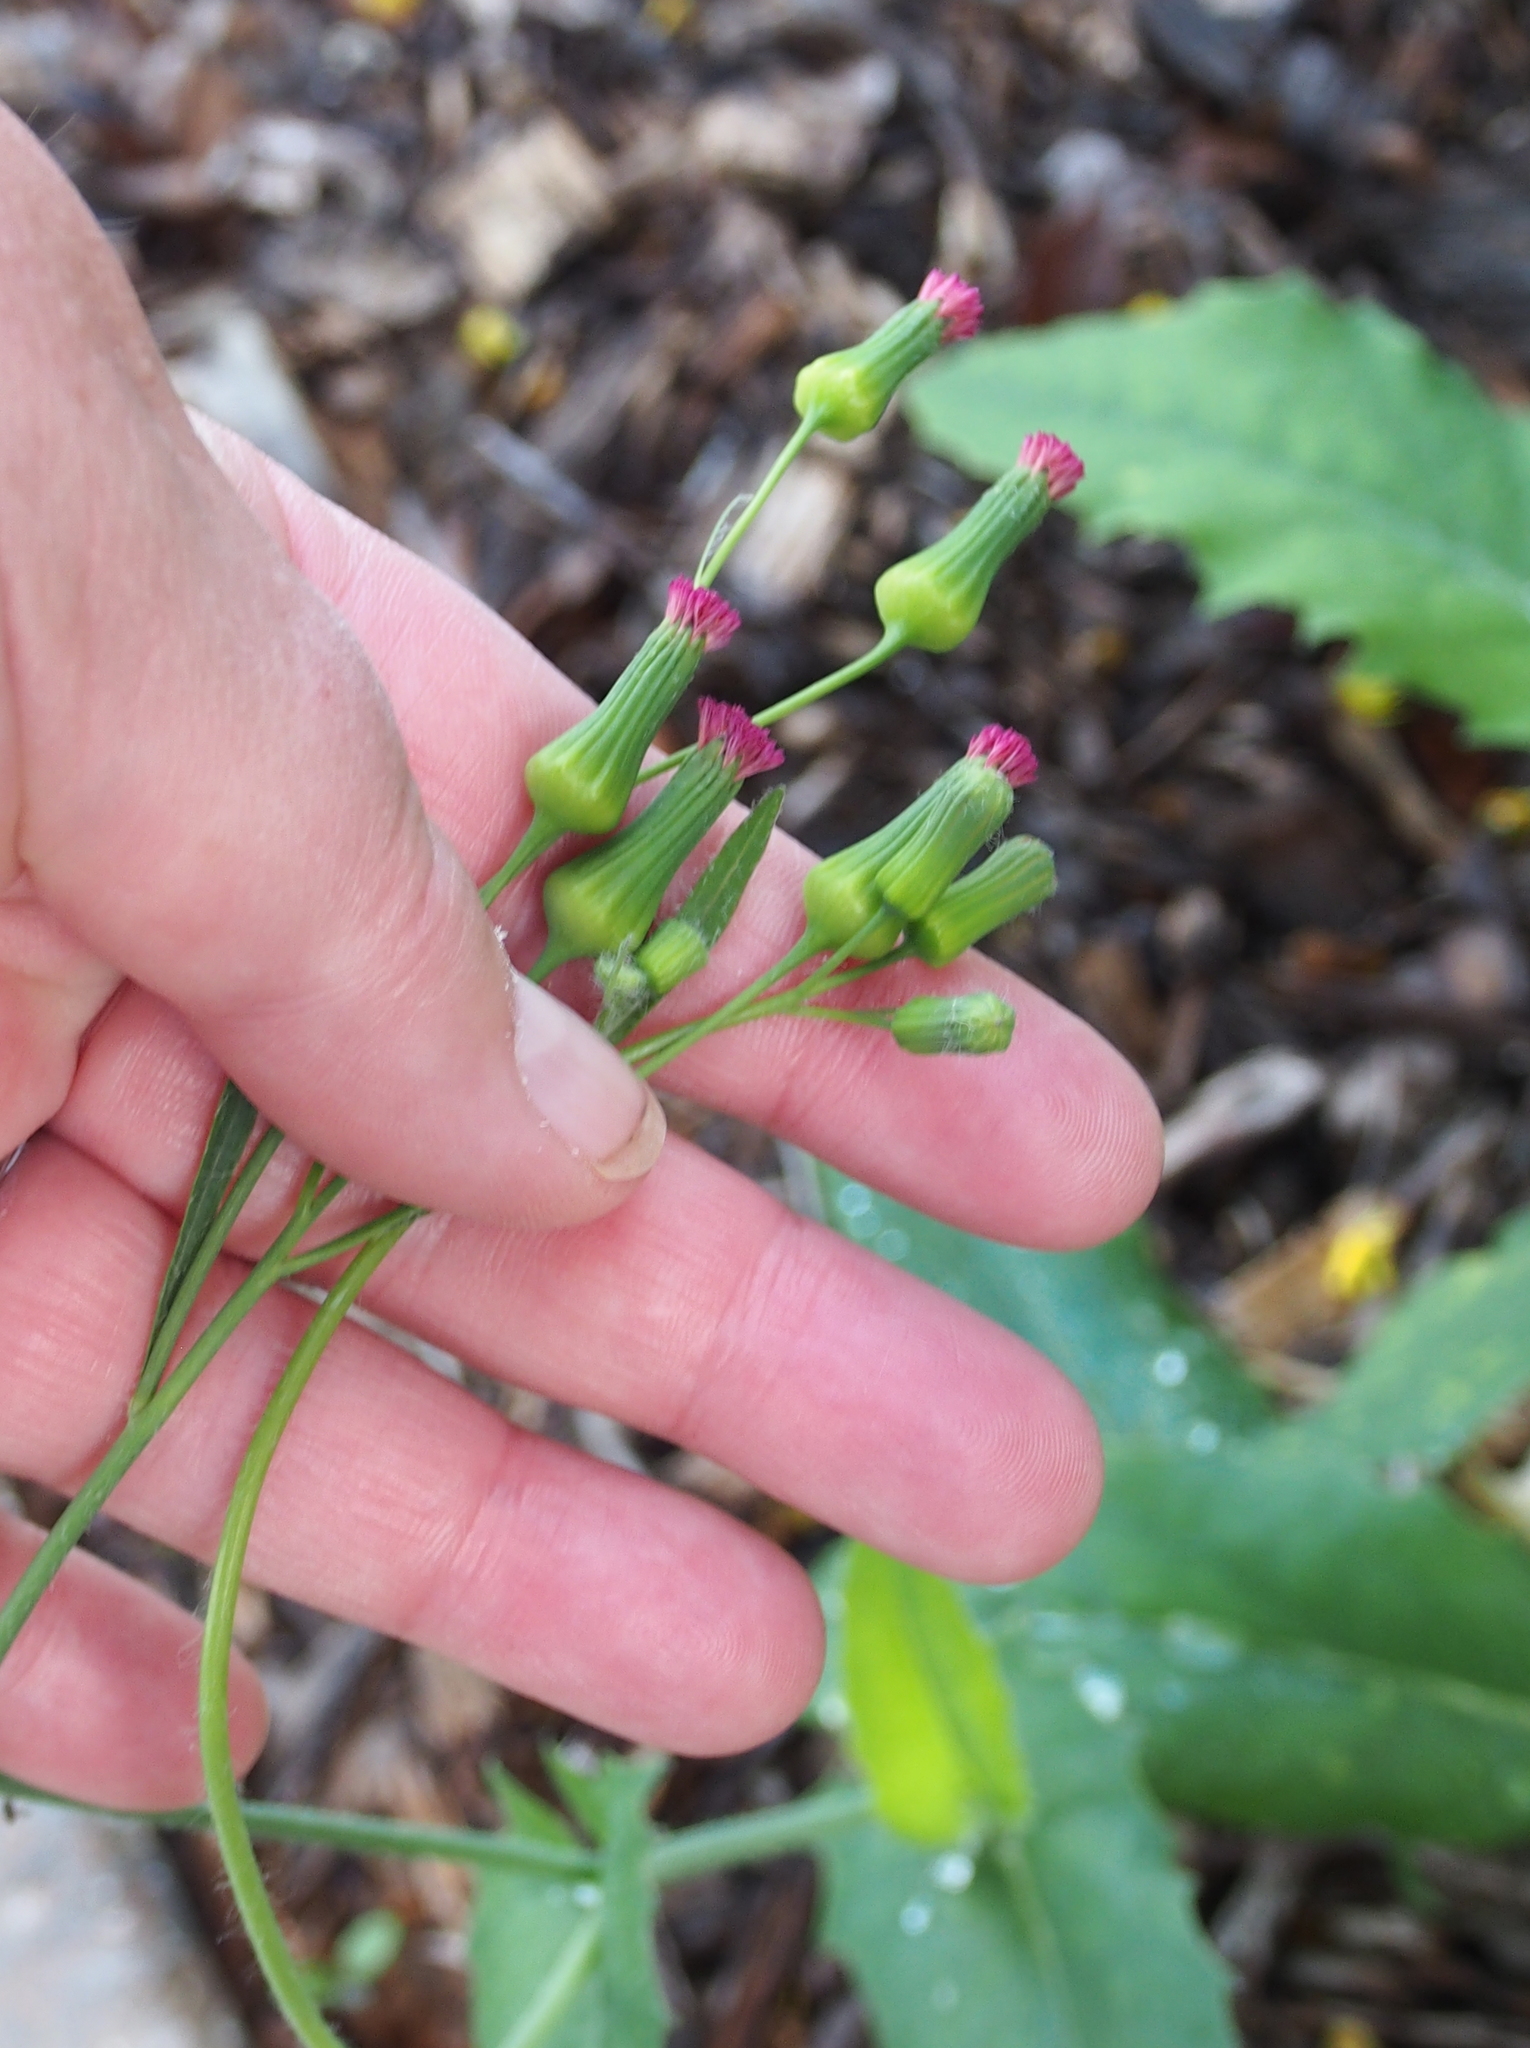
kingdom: Plantae
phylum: Tracheophyta
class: Magnoliopsida
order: Asterales
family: Asteraceae
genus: Emilia
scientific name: Emilia fosbergii
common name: Florida tasselflower
